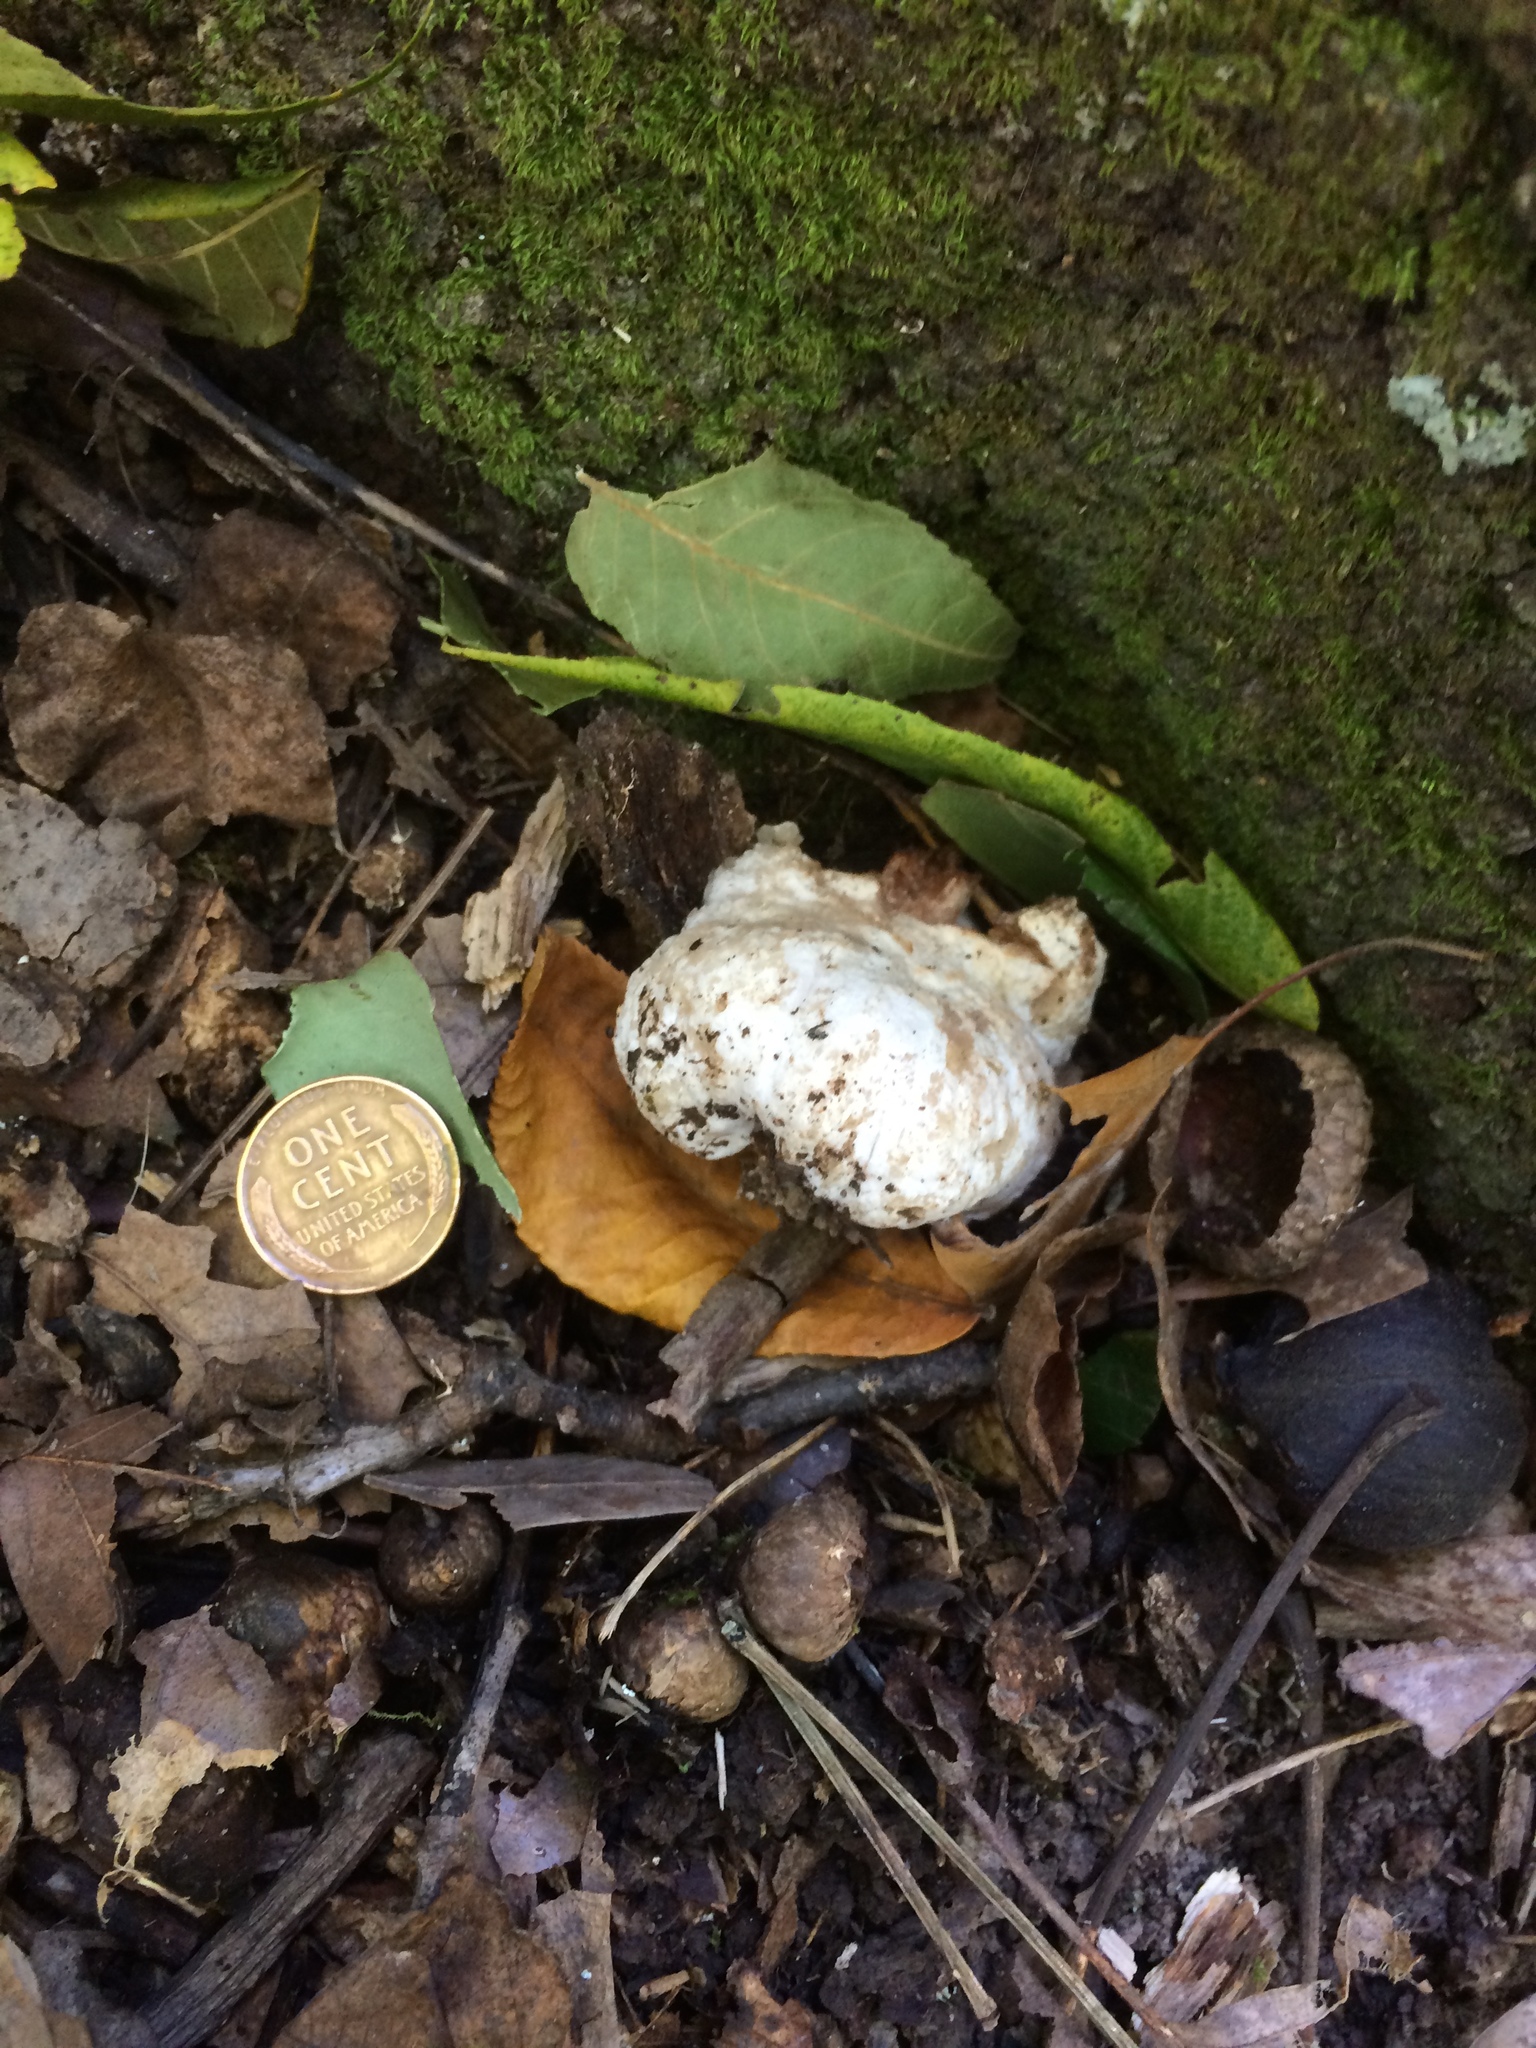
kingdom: Fungi
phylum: Basidiomycota
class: Agaricomycetes
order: Agaricales
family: Entolomataceae
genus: Entoloma
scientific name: Entoloma abortivum
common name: Aborted entoloma
